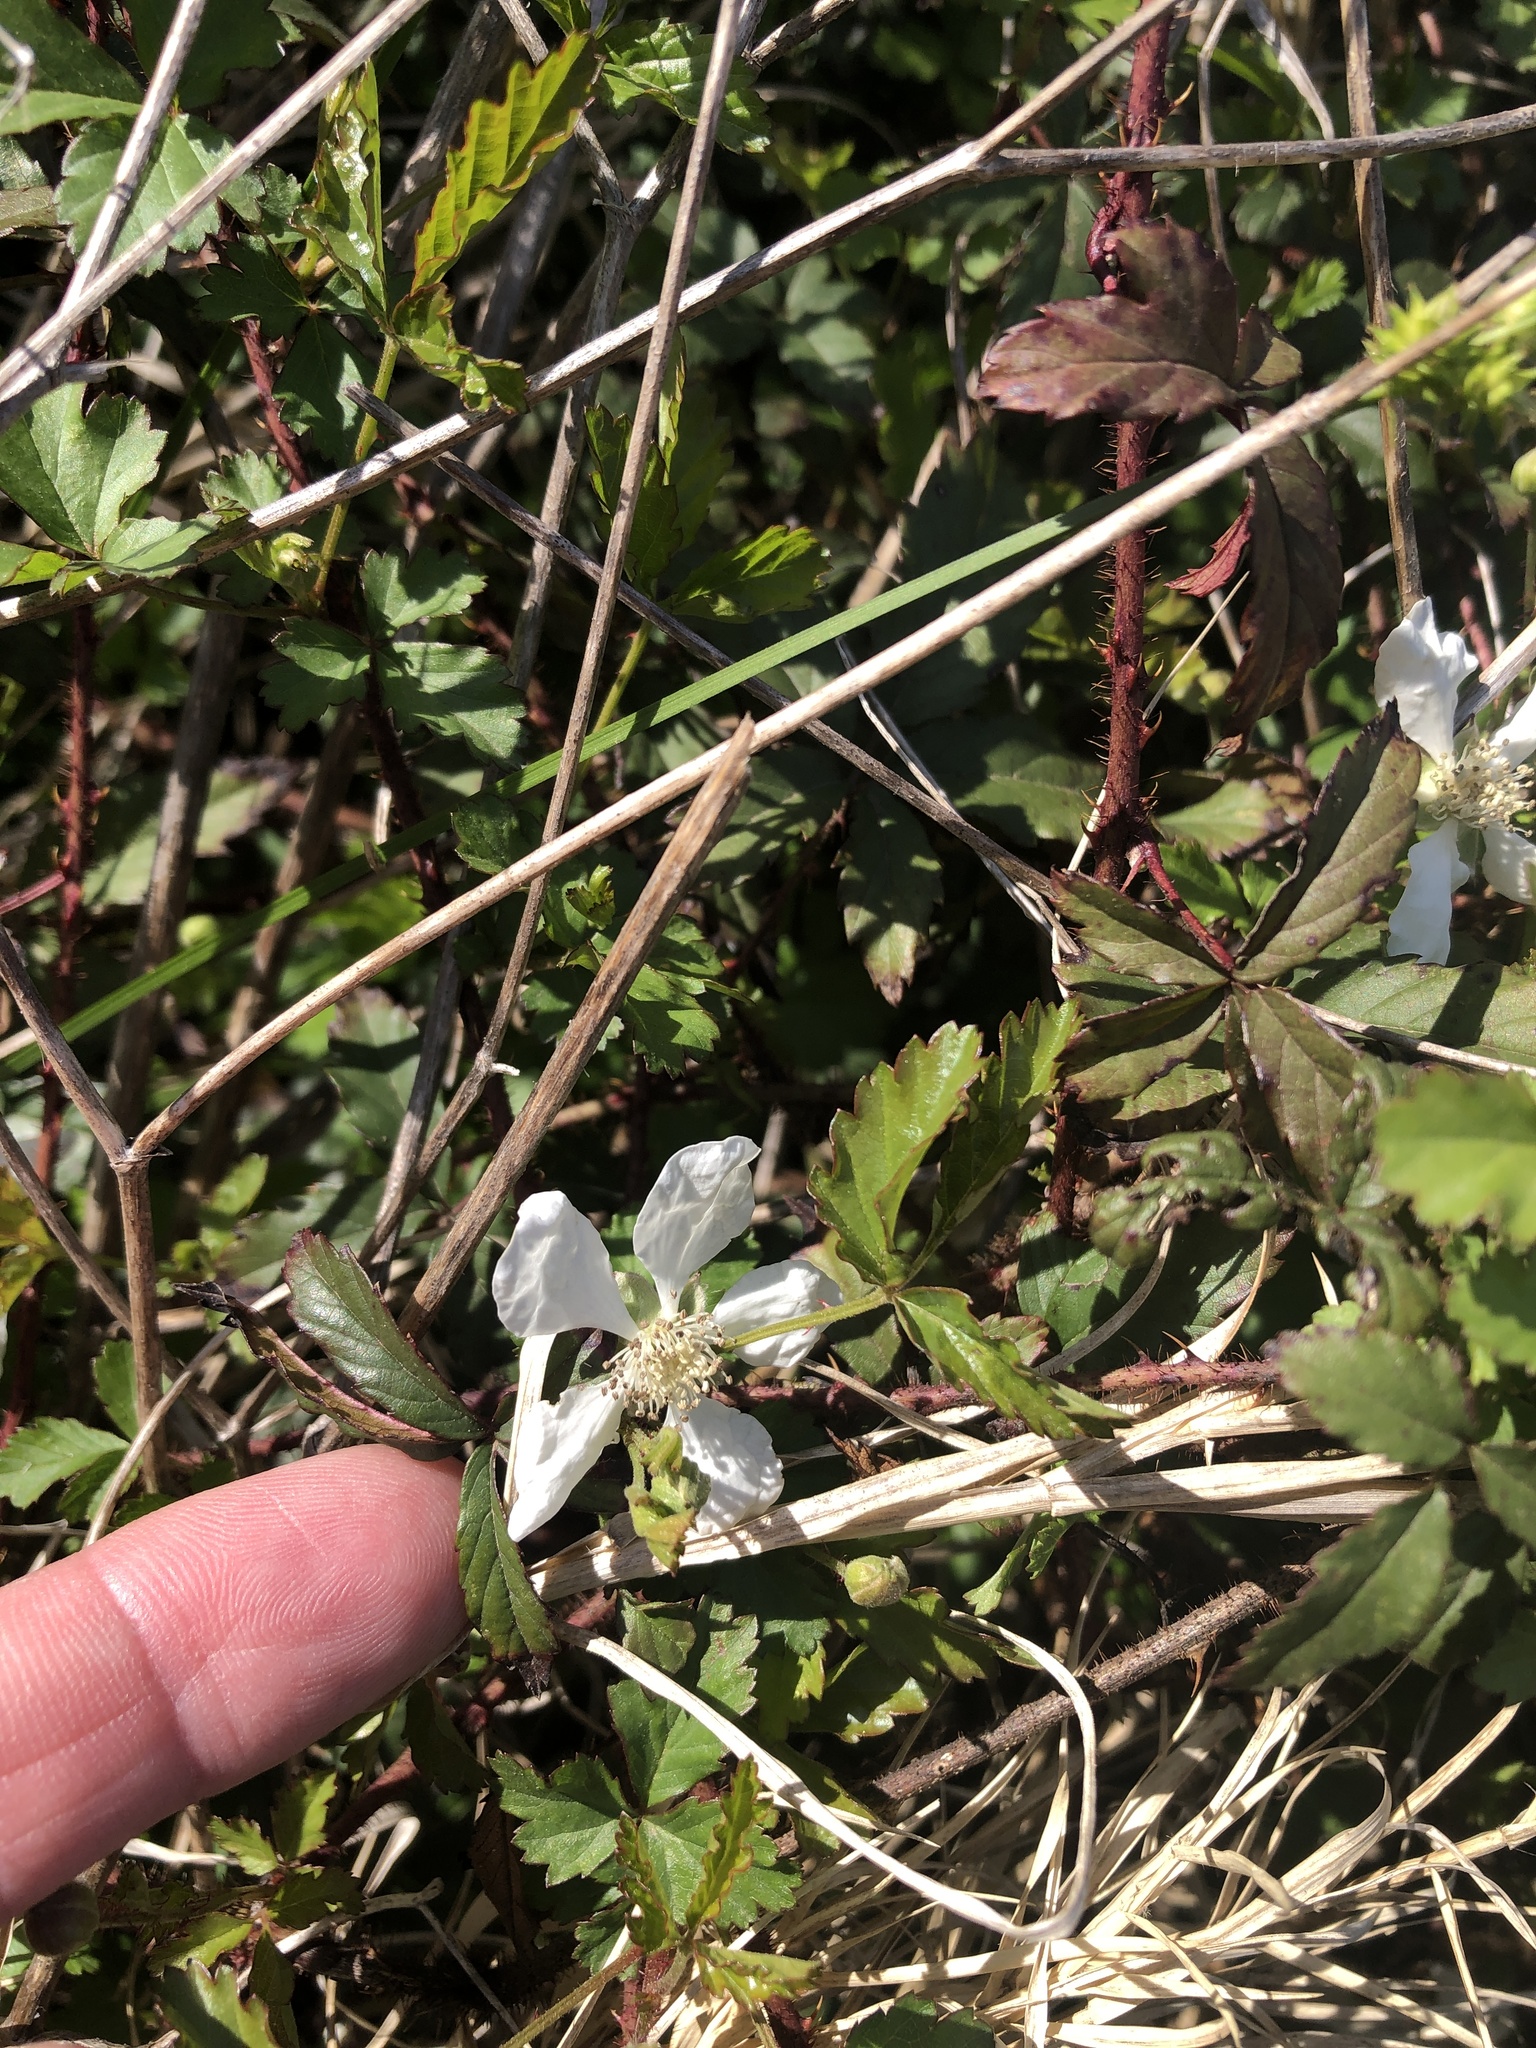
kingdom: Plantae
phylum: Tracheophyta
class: Magnoliopsida
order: Rosales
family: Rosaceae
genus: Rubus
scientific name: Rubus trivialis
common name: Southern dewberry
